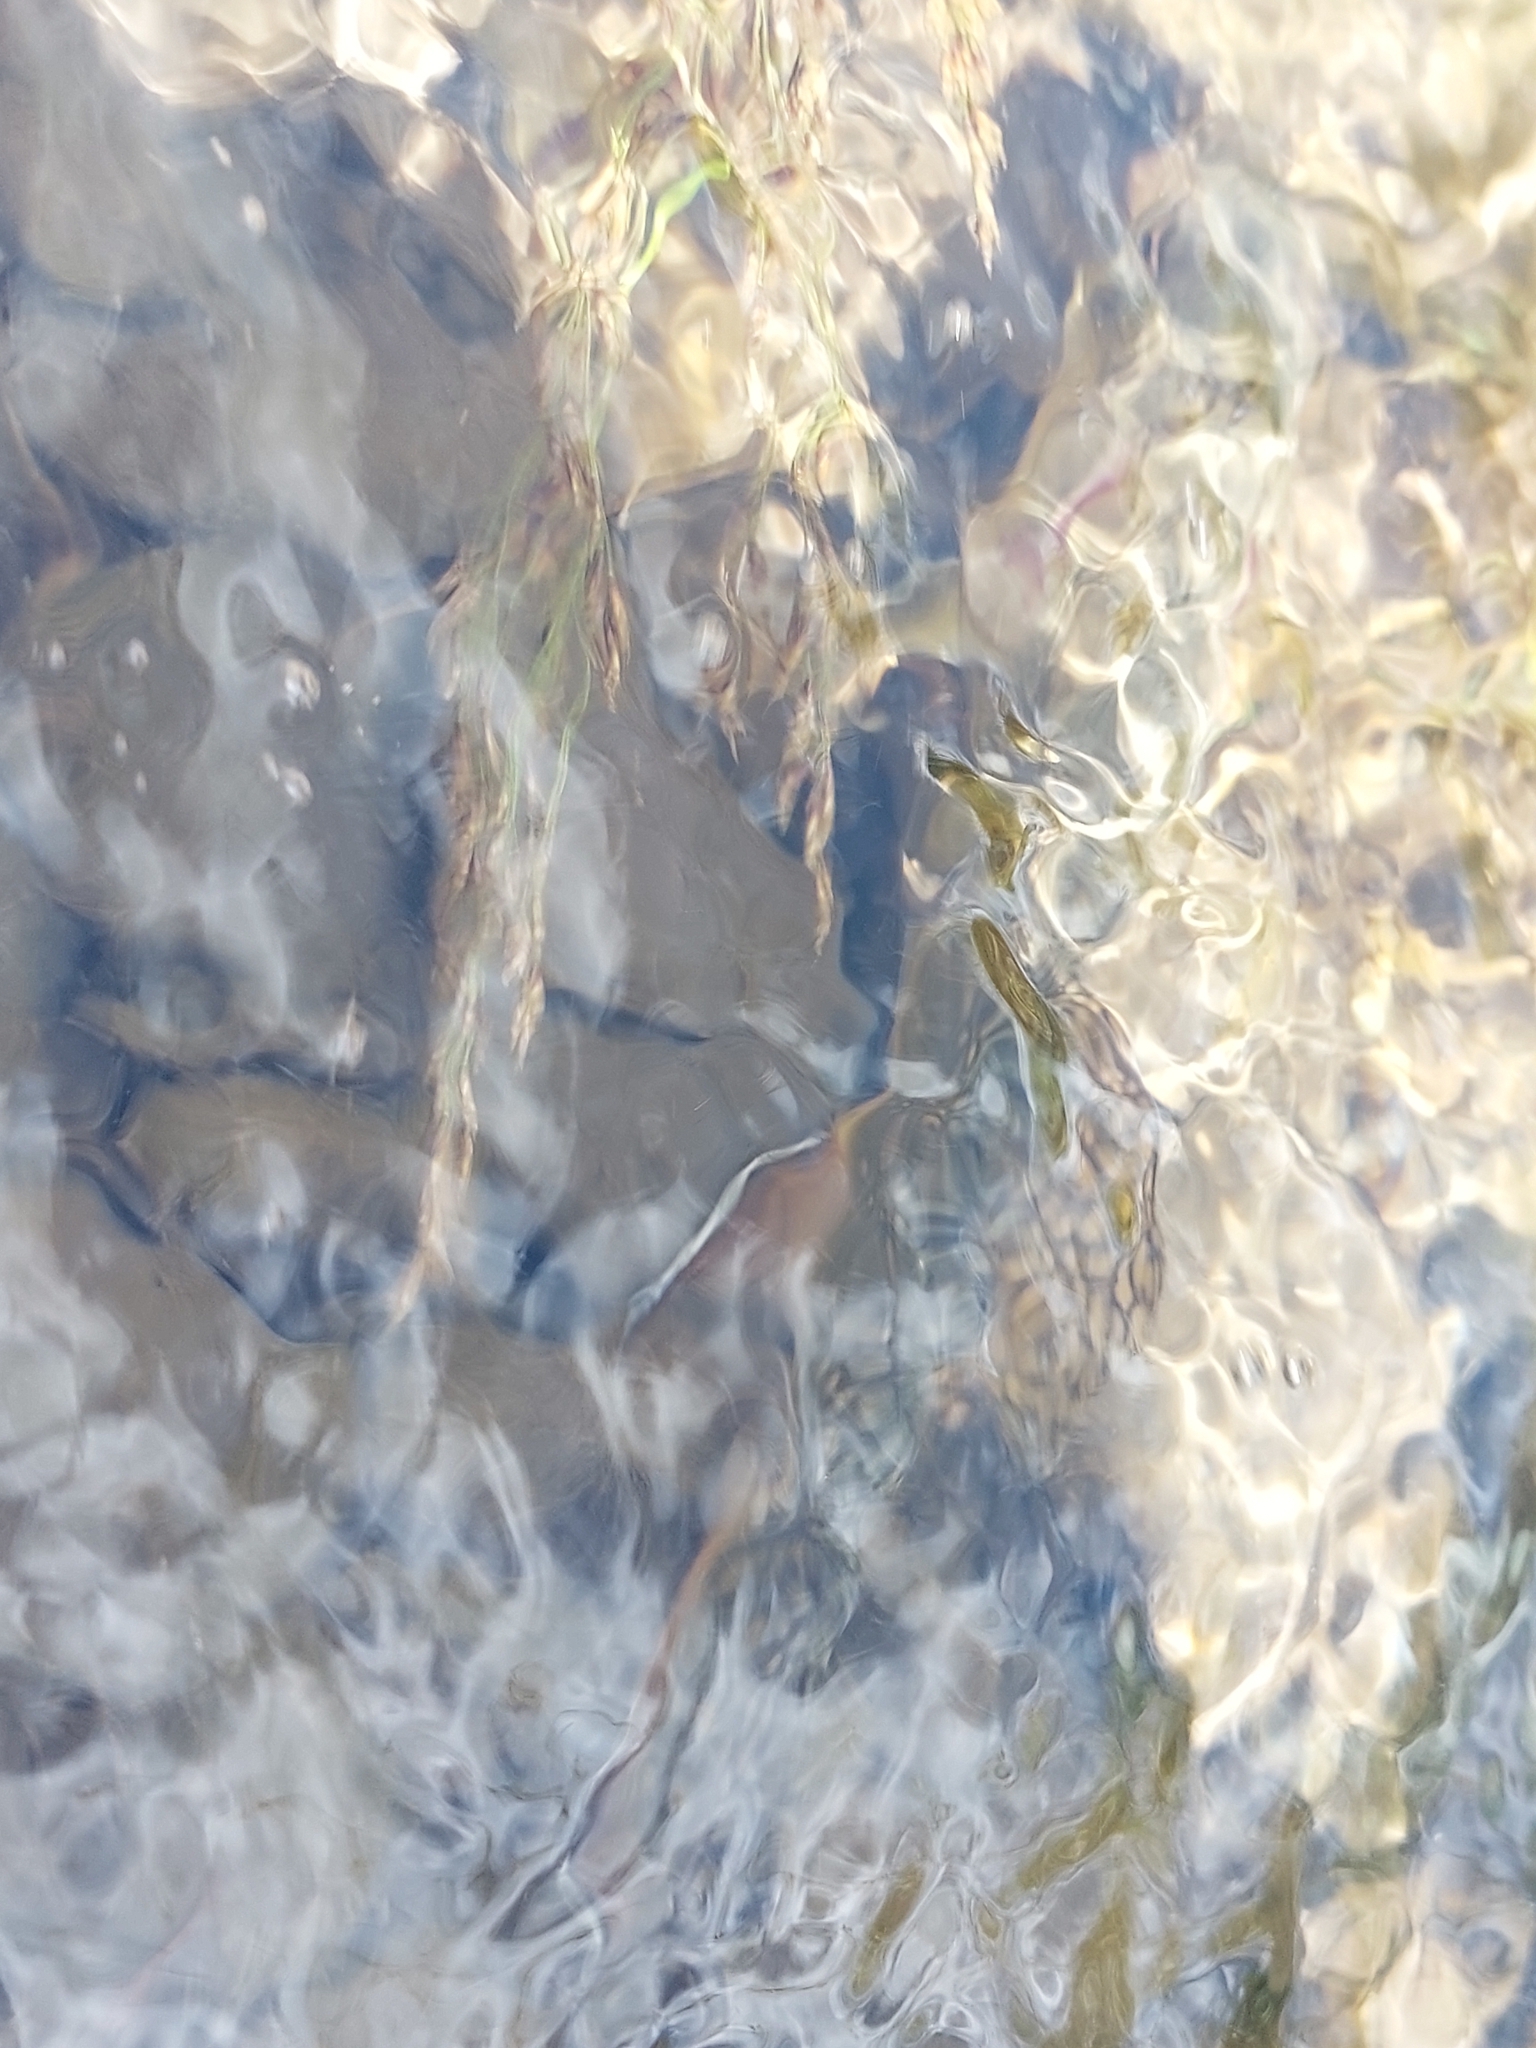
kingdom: Animalia
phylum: Chordata
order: Salmoniformes
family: Salmonidae
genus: Salvelinus
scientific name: Salvelinus fontinalis
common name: Brook trout
